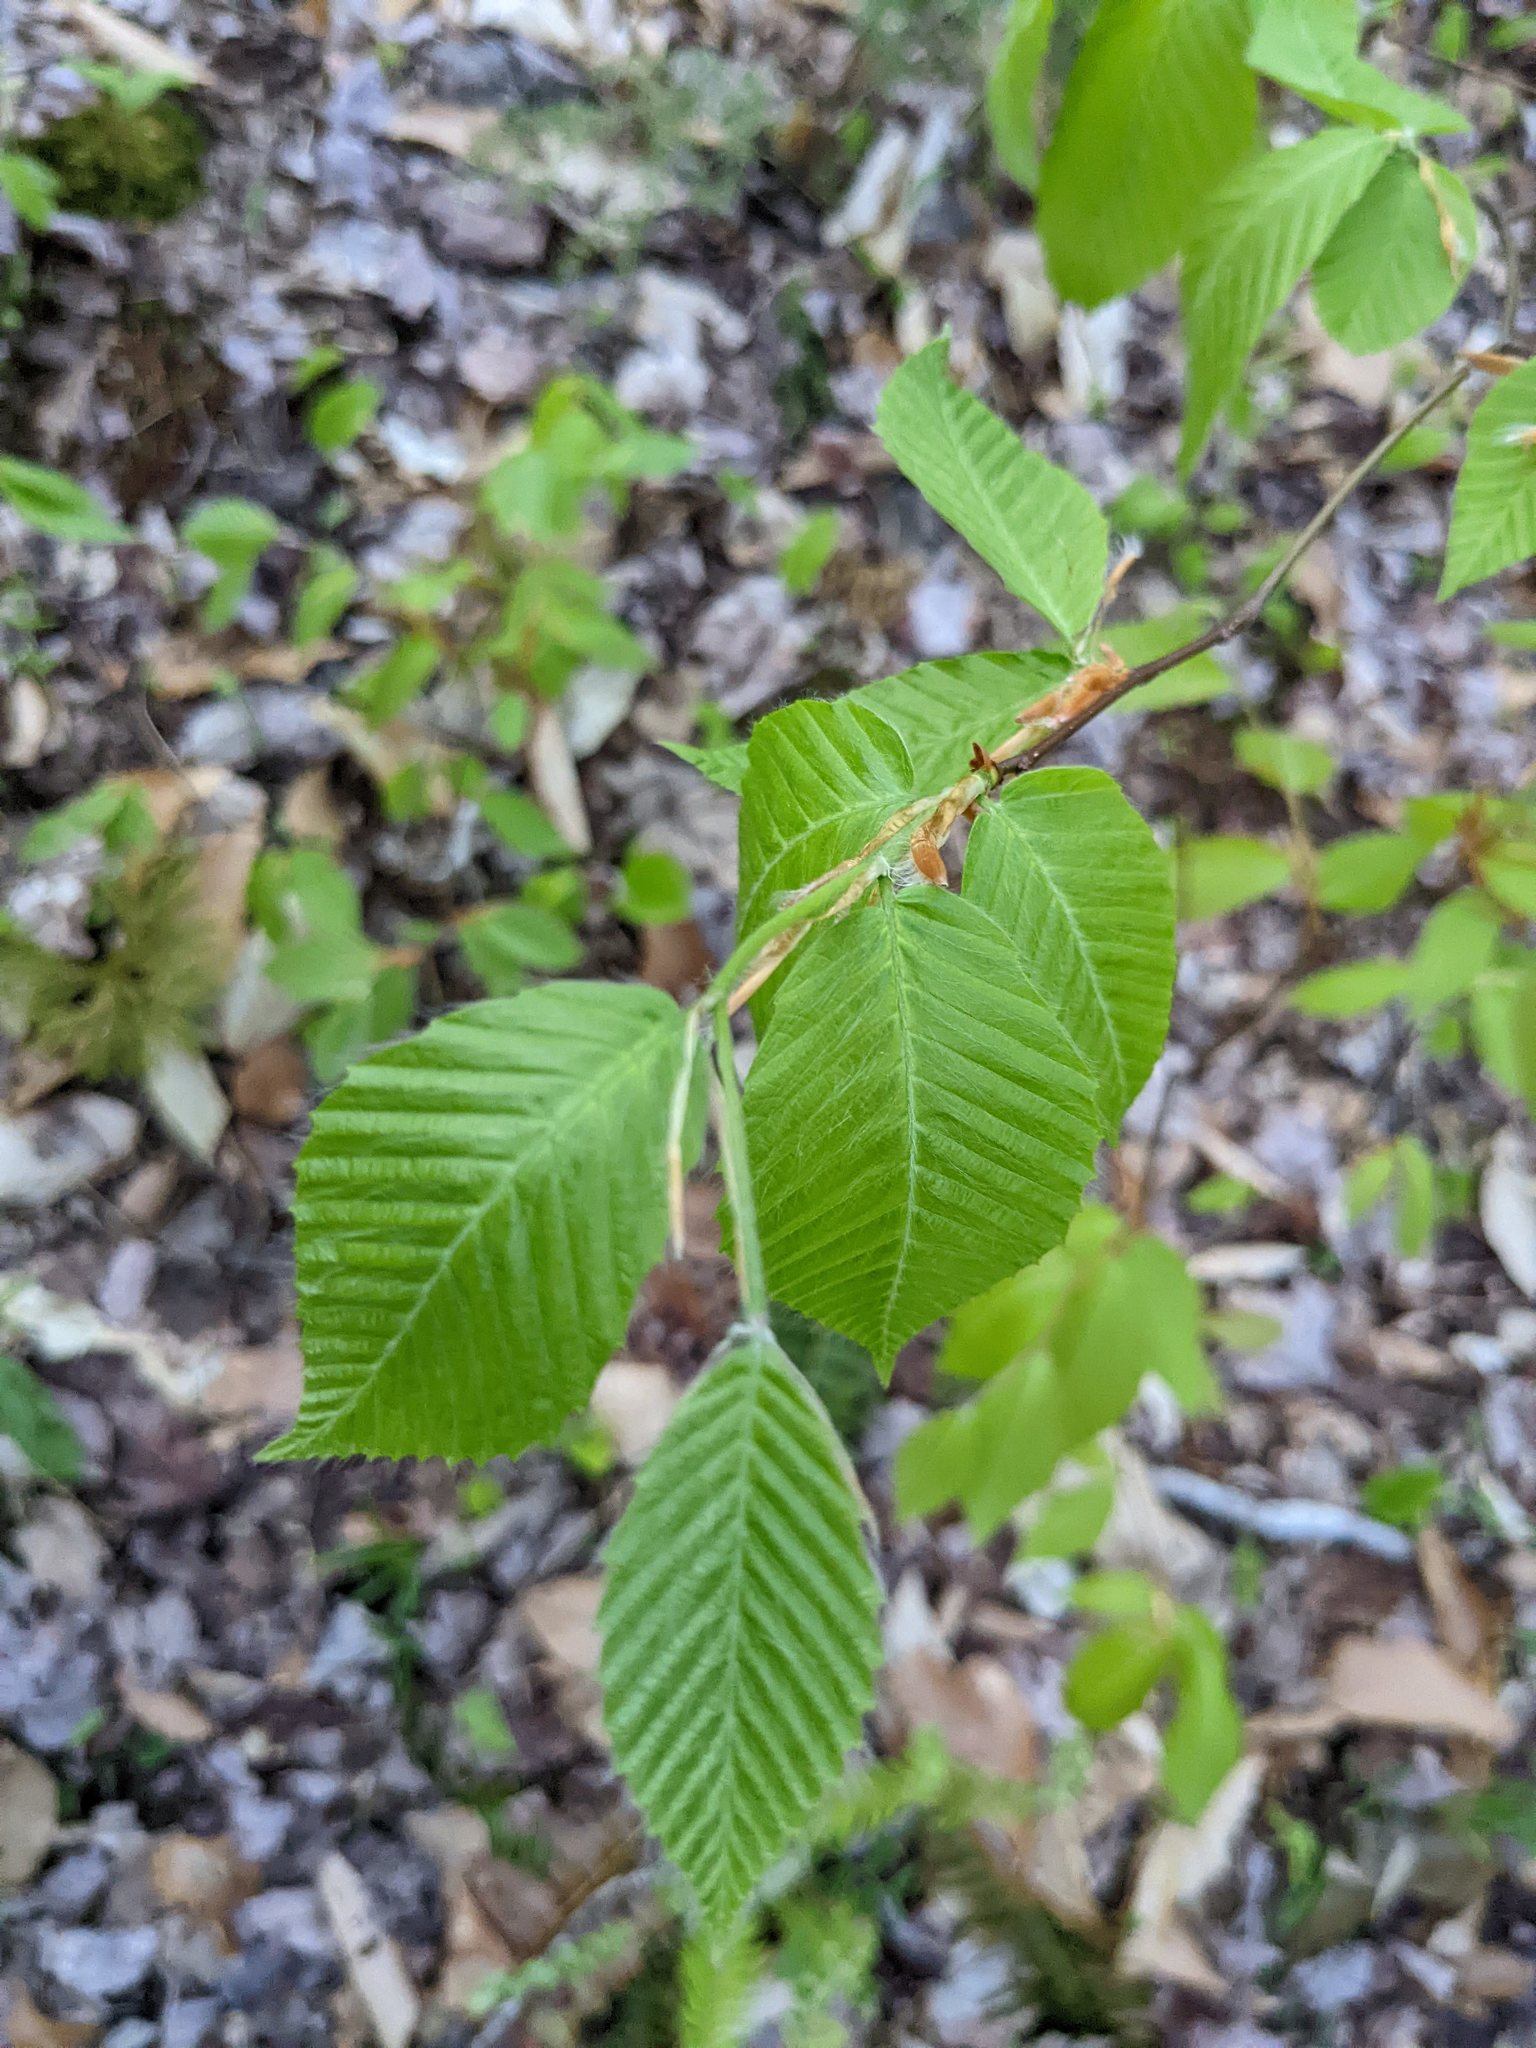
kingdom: Plantae
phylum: Tracheophyta
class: Magnoliopsida
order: Fagales
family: Fagaceae
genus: Fagus
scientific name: Fagus grandifolia
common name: American beech
